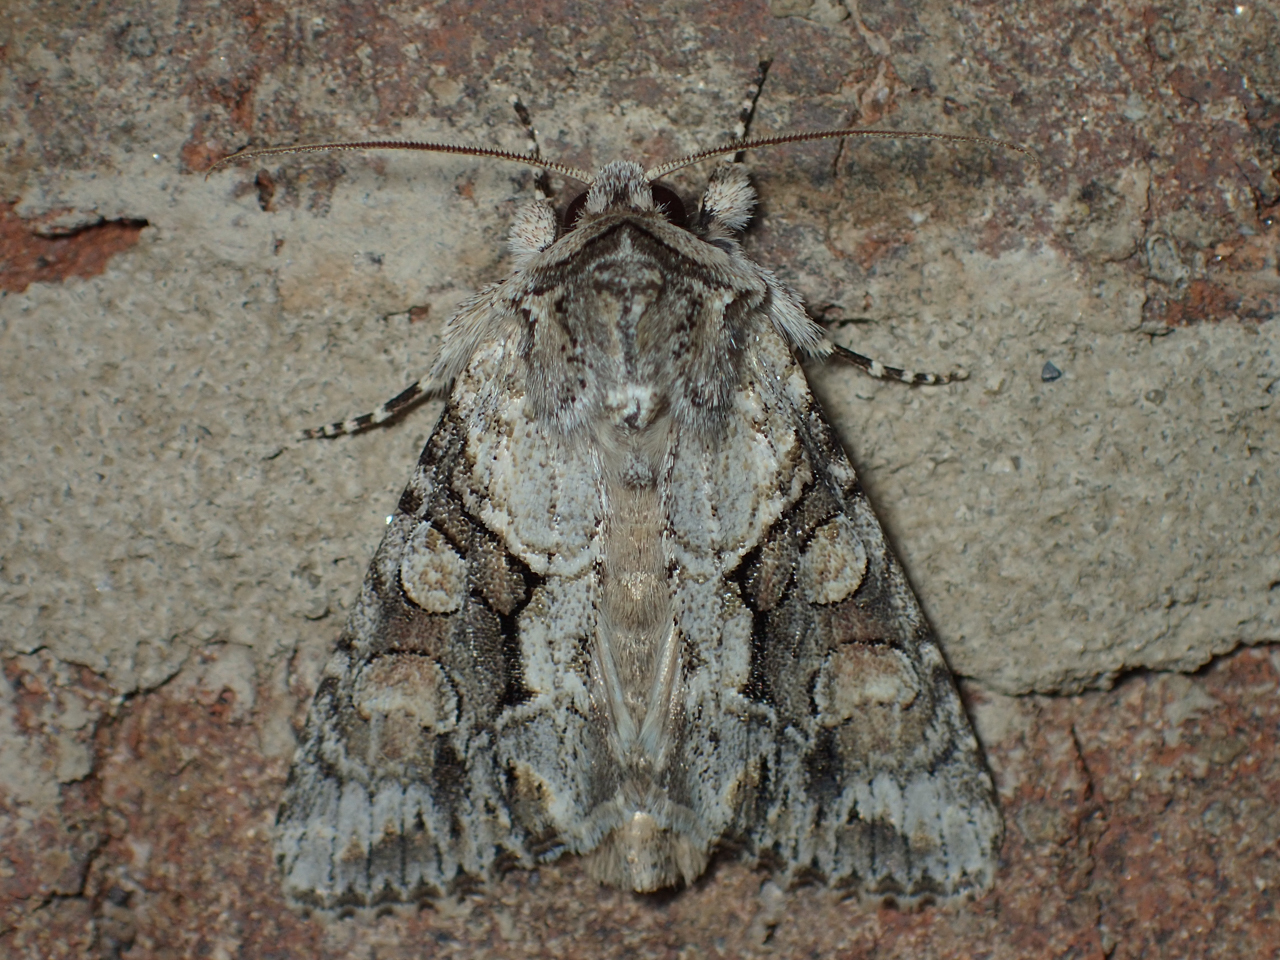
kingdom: Animalia
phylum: Arthropoda
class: Insecta
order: Lepidoptera
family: Noctuidae
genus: Achatia
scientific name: Achatia distincta
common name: Distinct quaker
